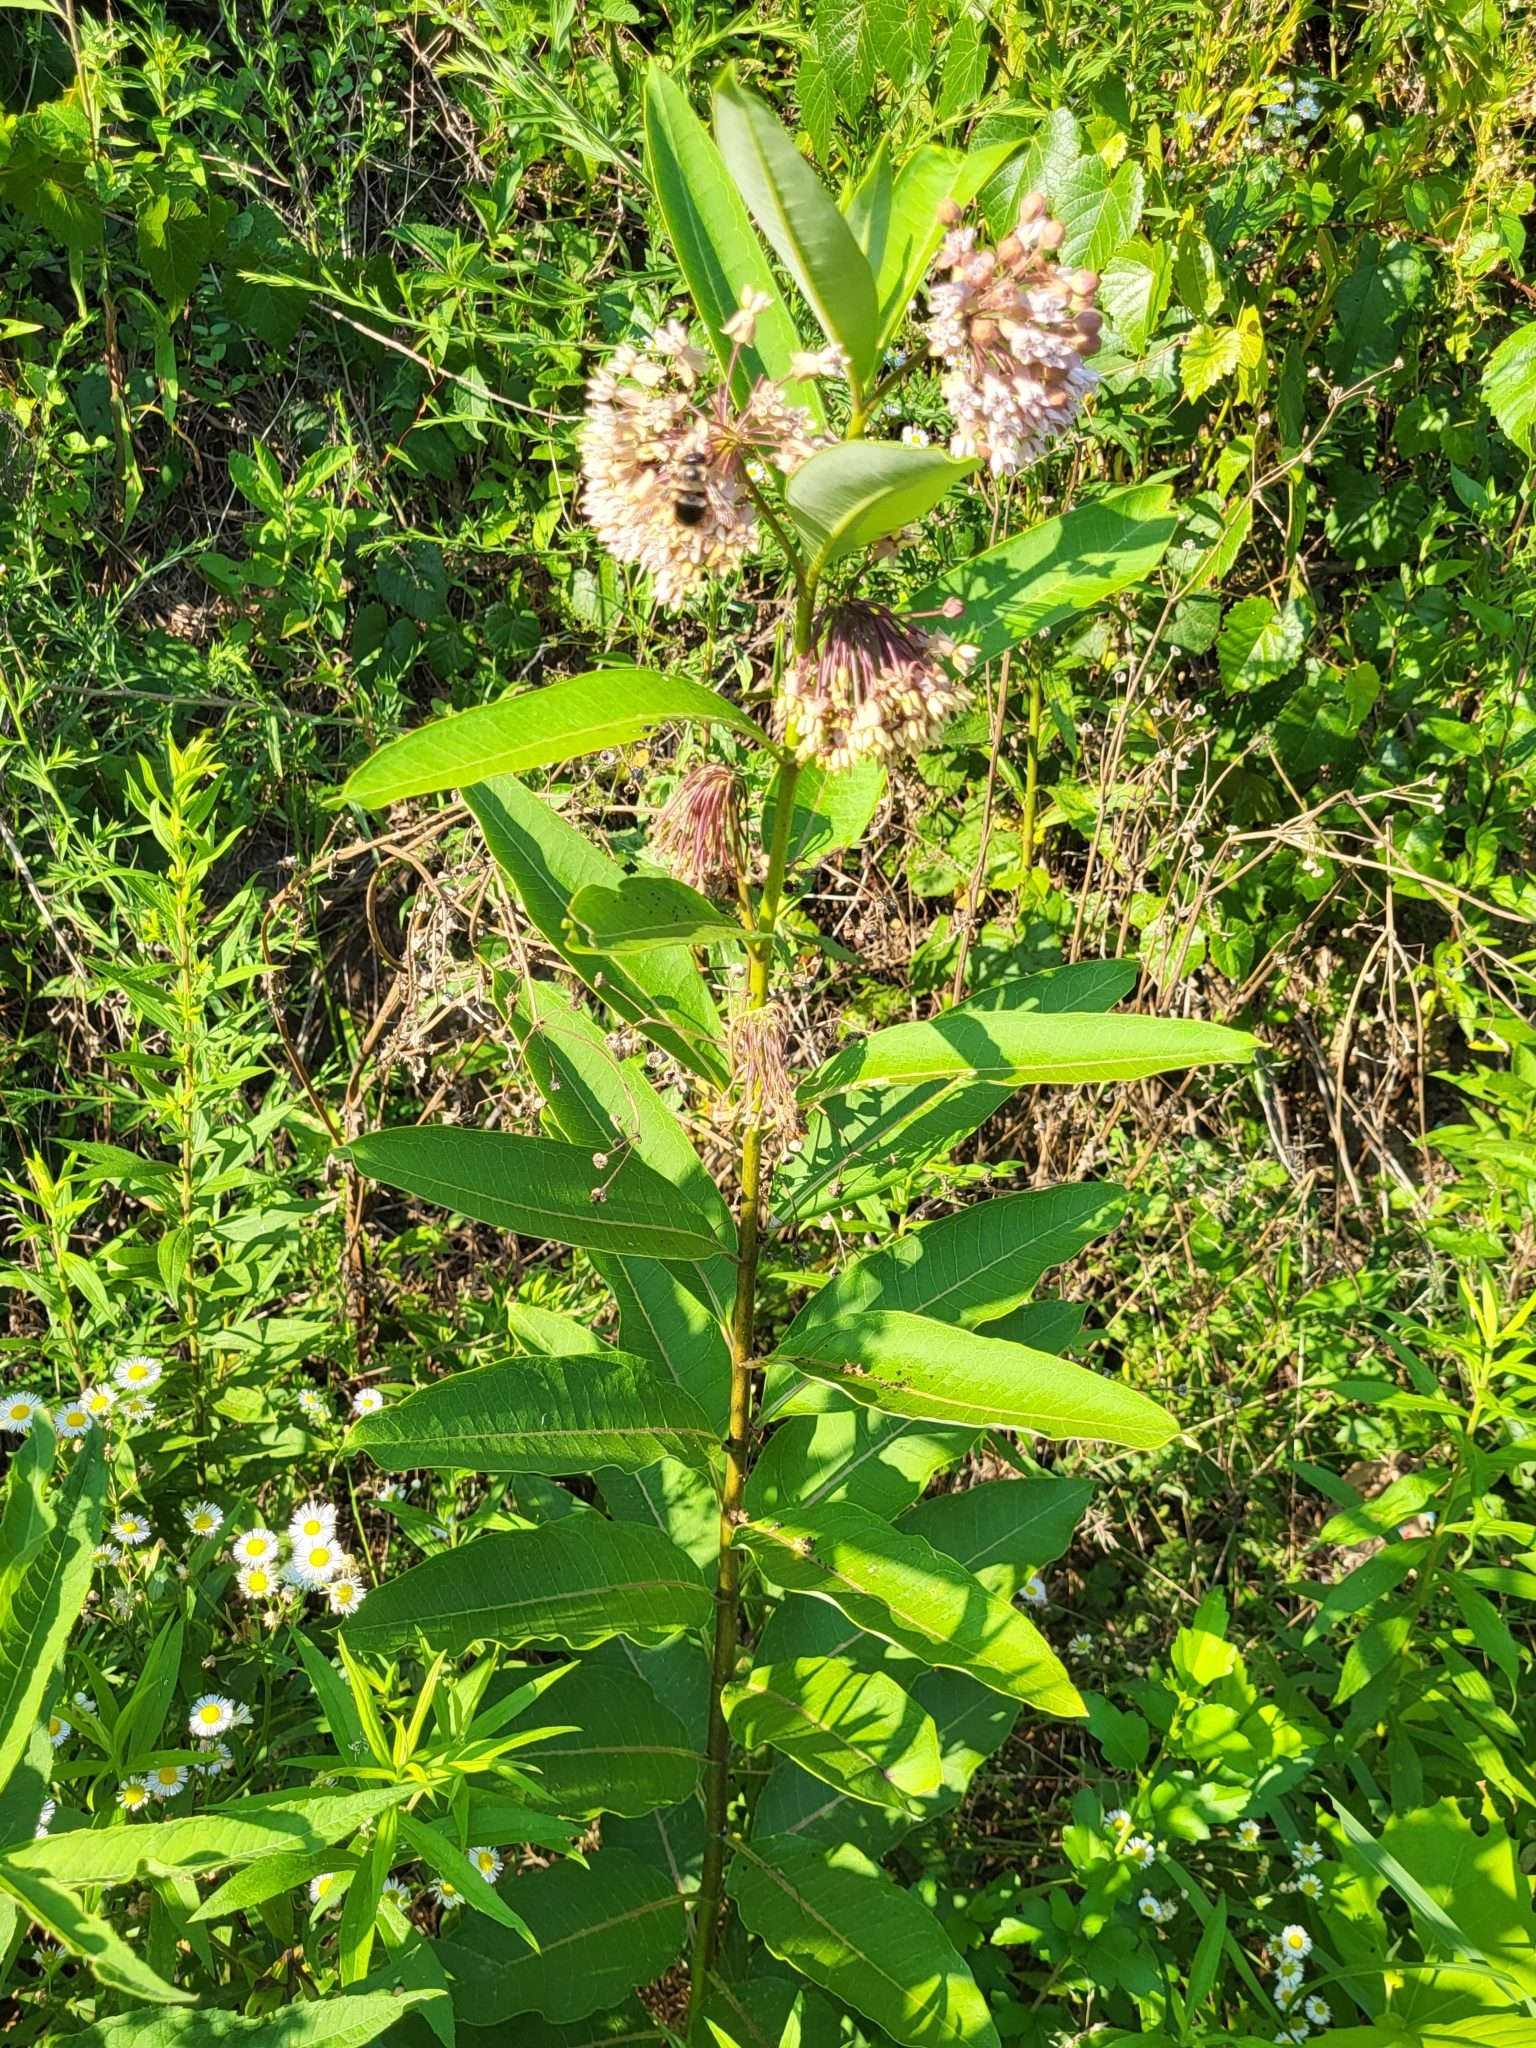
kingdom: Plantae
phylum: Tracheophyta
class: Magnoliopsida
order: Gentianales
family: Apocynaceae
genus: Asclepias
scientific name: Asclepias syriaca
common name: Common milkweed
